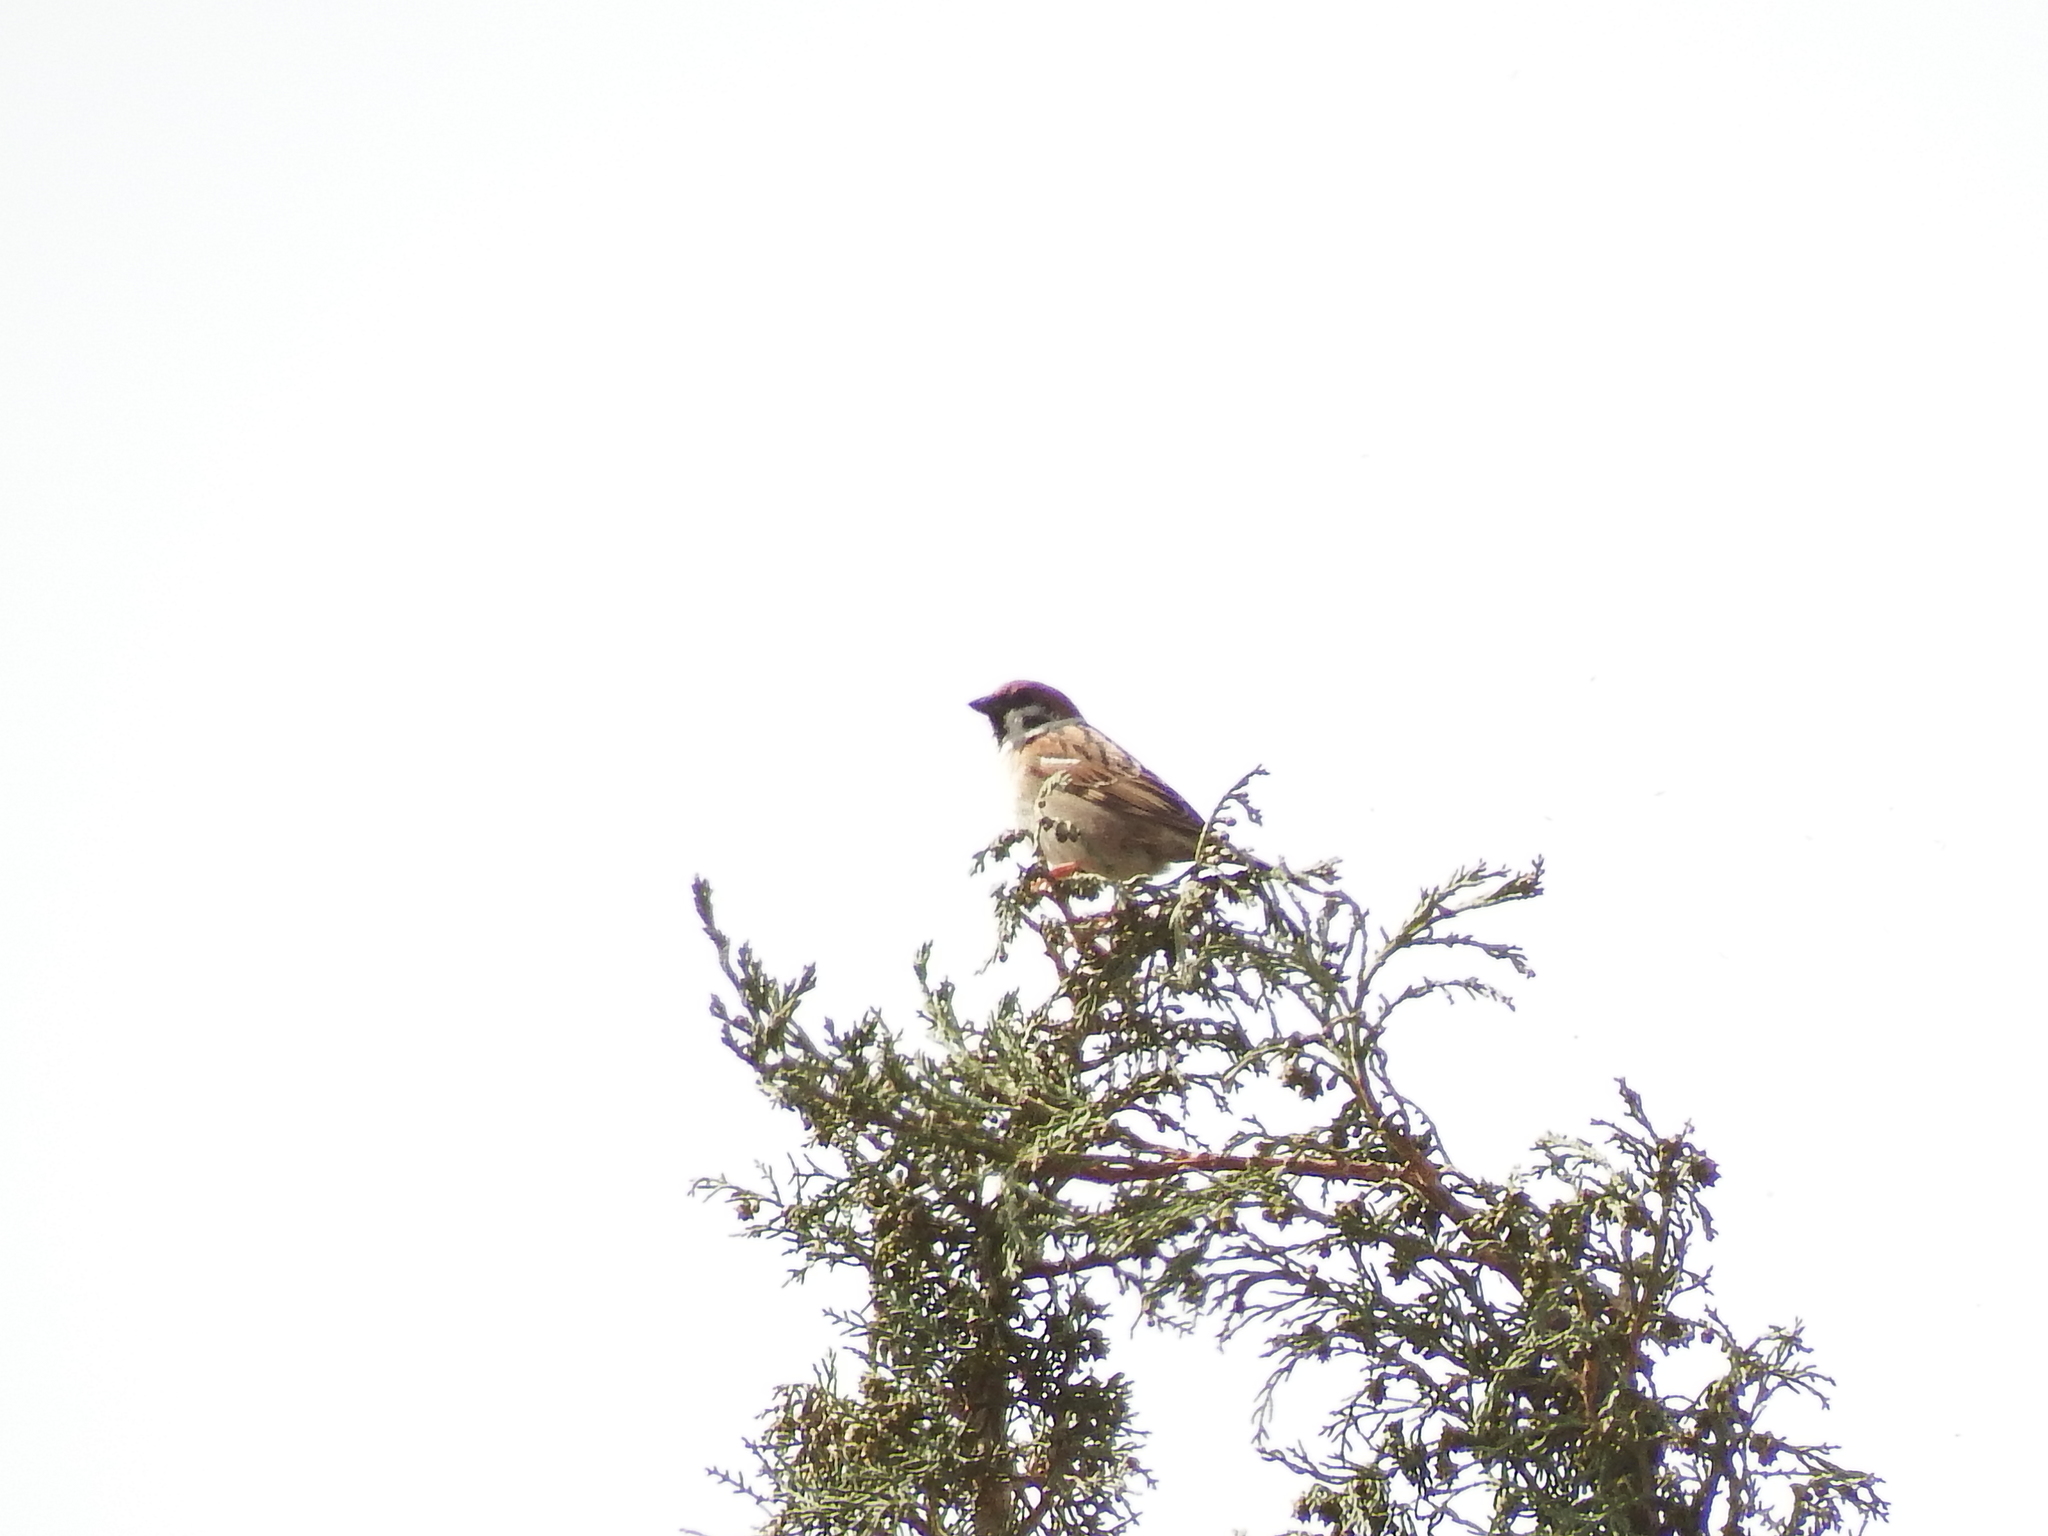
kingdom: Animalia
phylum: Chordata
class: Aves
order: Passeriformes
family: Passeridae
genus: Passer
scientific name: Passer montanus
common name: Eurasian tree sparrow
